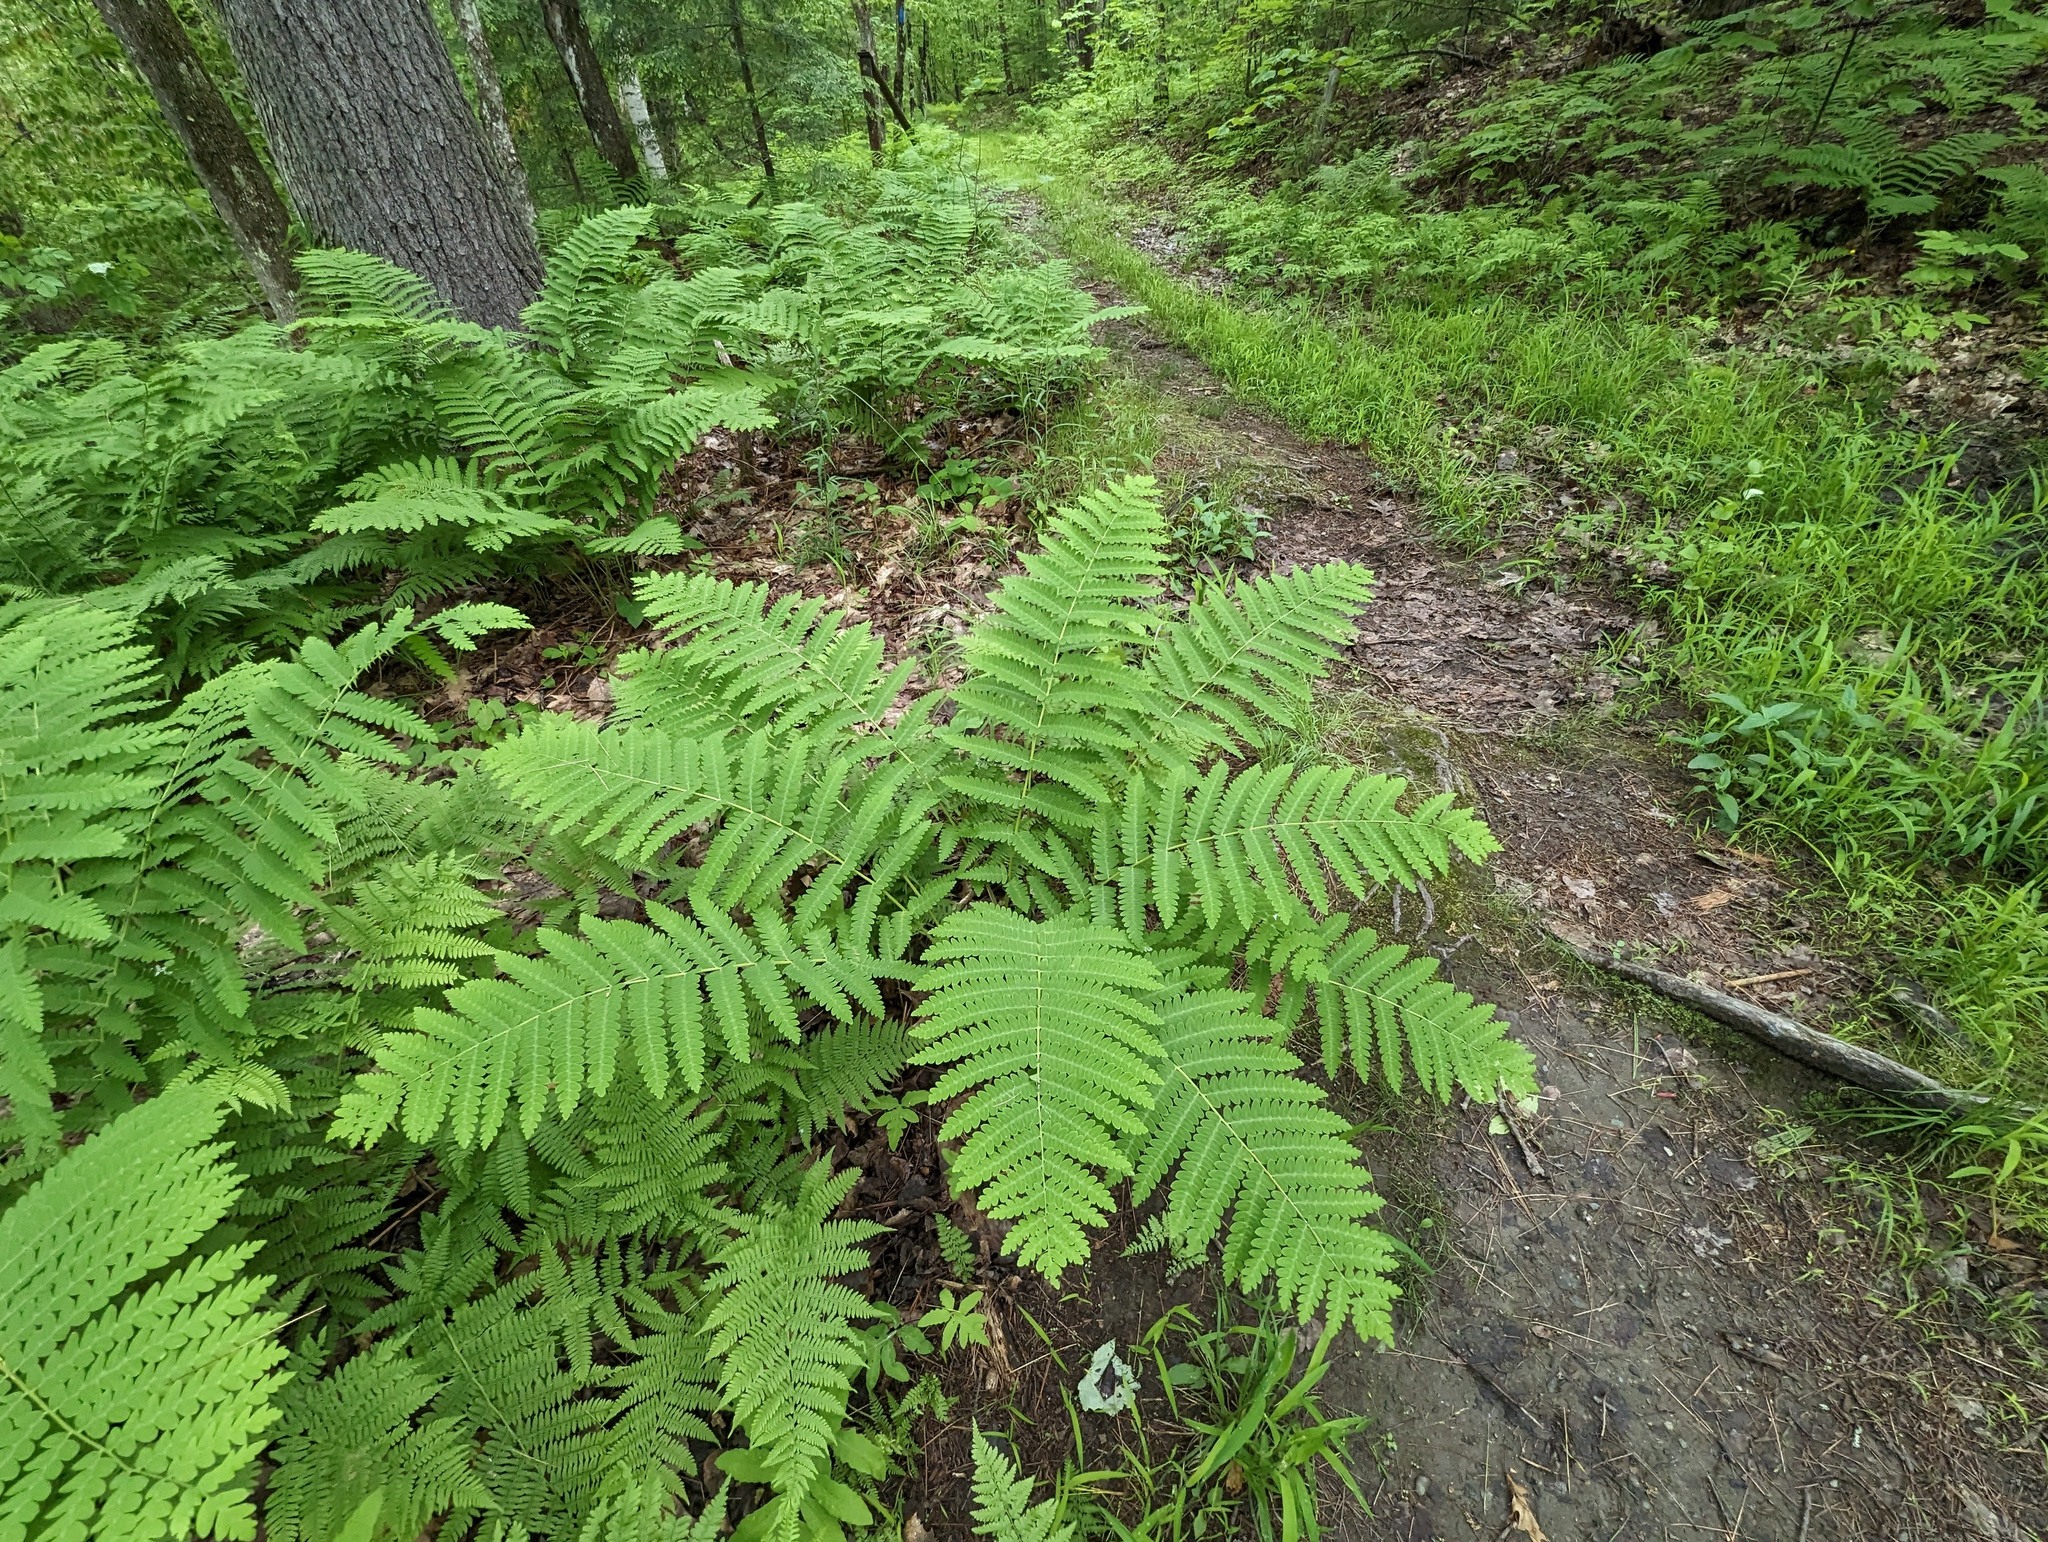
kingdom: Plantae
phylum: Tracheophyta
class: Polypodiopsida
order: Osmundales
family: Osmundaceae
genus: Claytosmunda
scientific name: Claytosmunda claytoniana
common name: Clayton's fern
